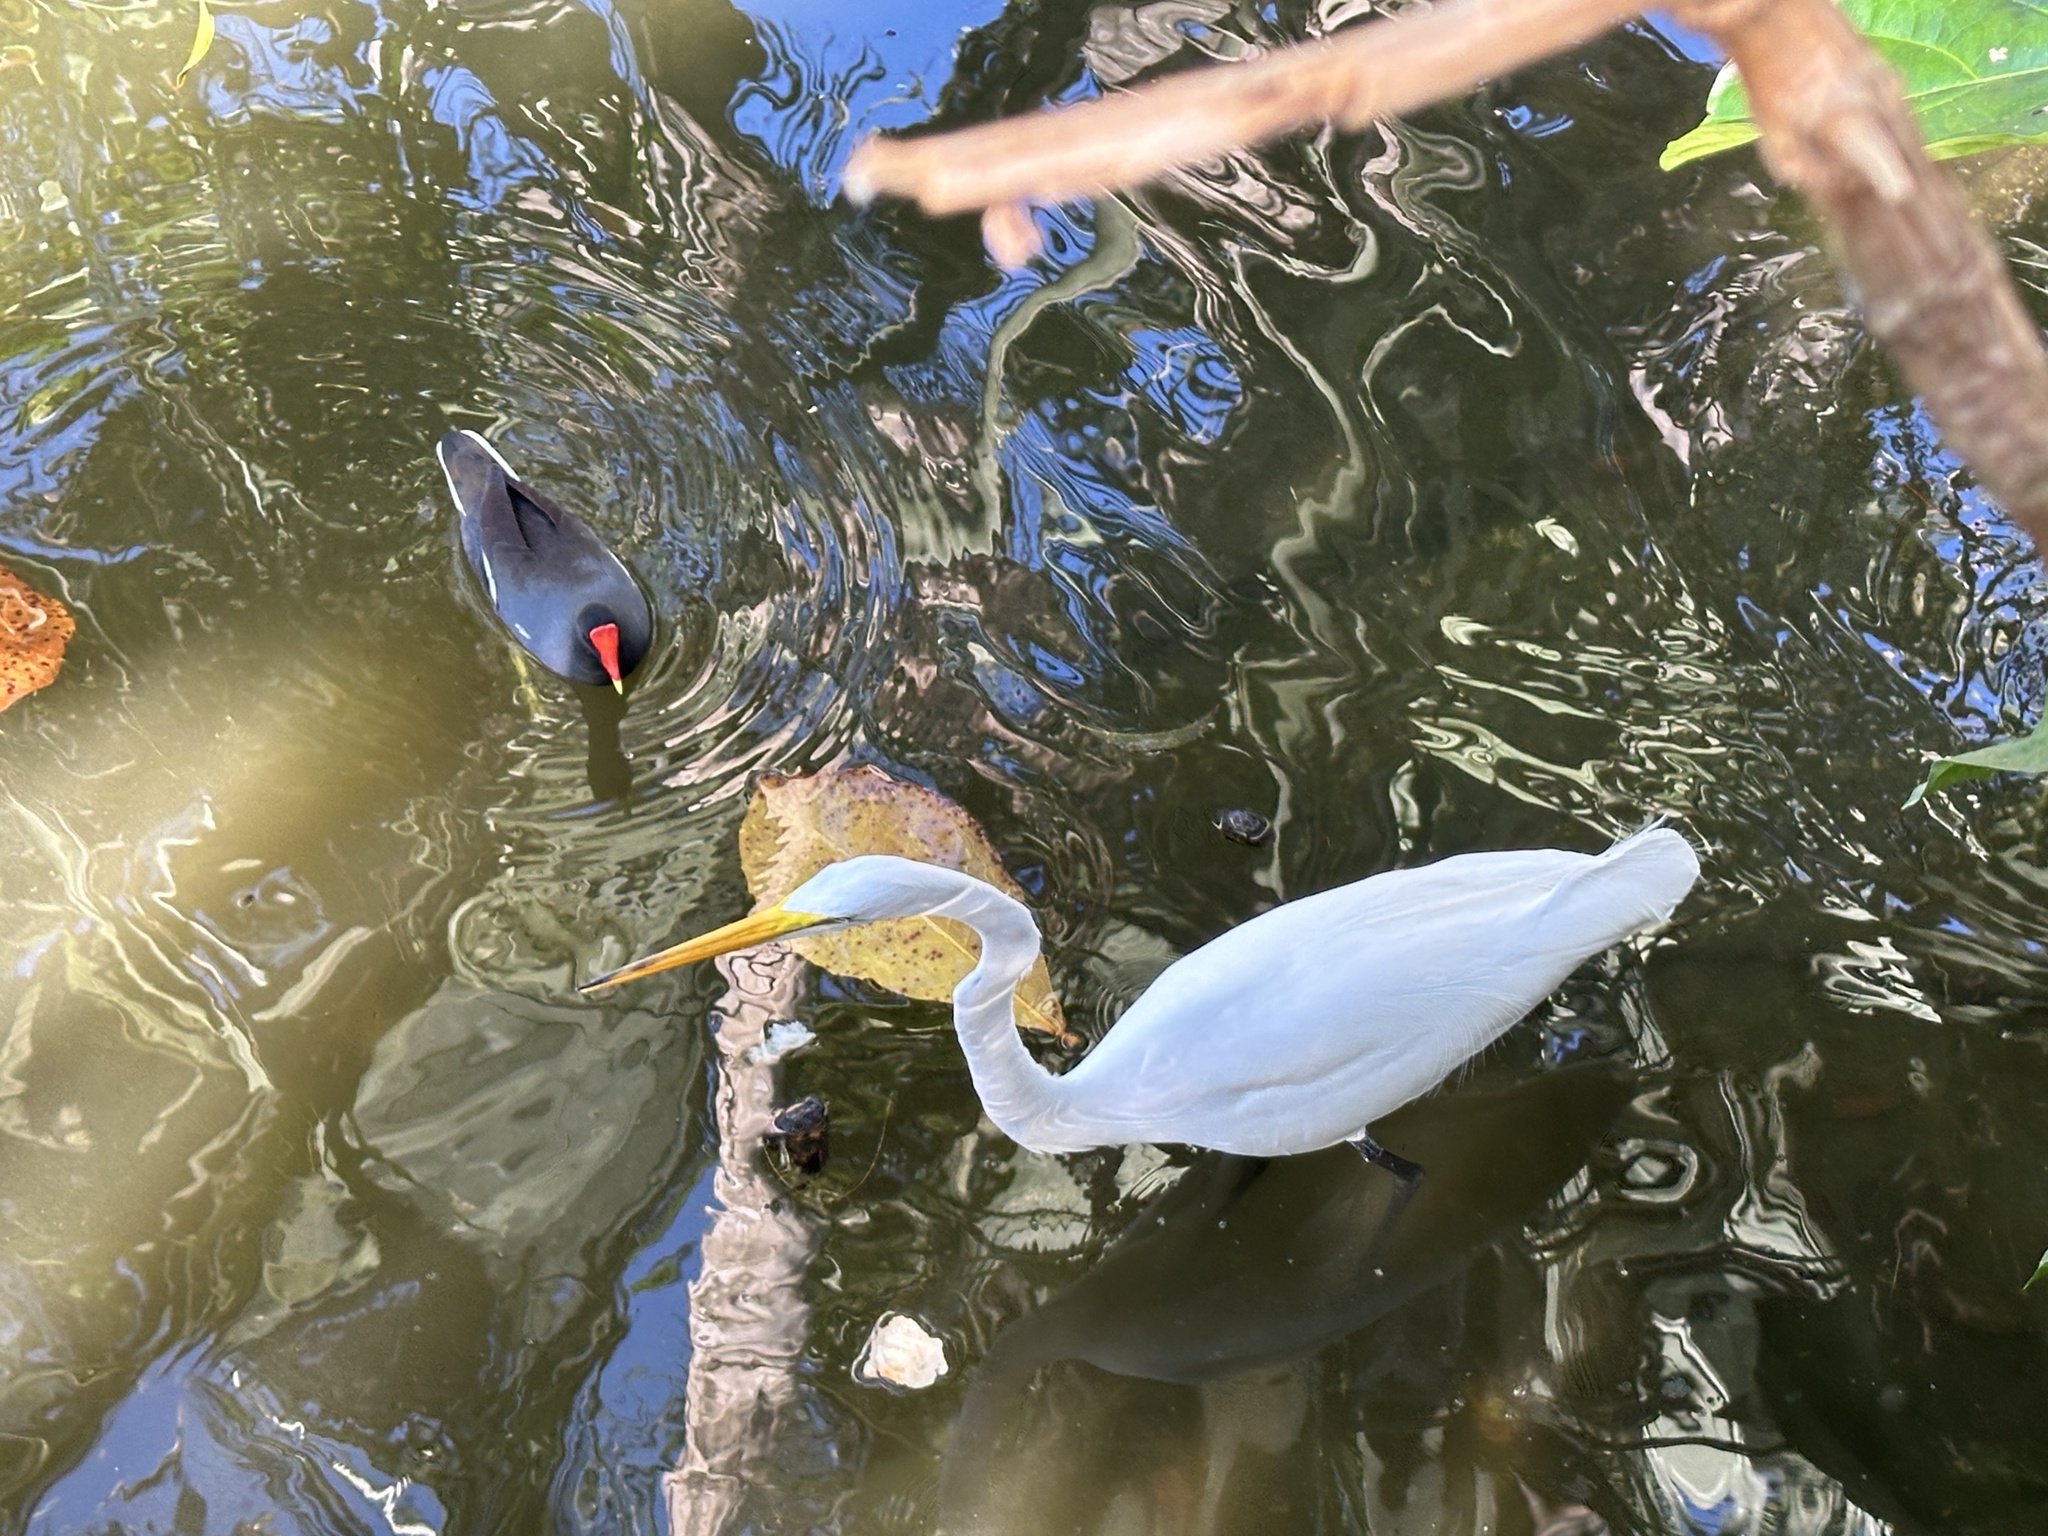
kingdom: Animalia
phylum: Chordata
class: Aves
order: Pelecaniformes
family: Ardeidae
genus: Ardea
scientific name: Ardea alba
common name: Great egret
